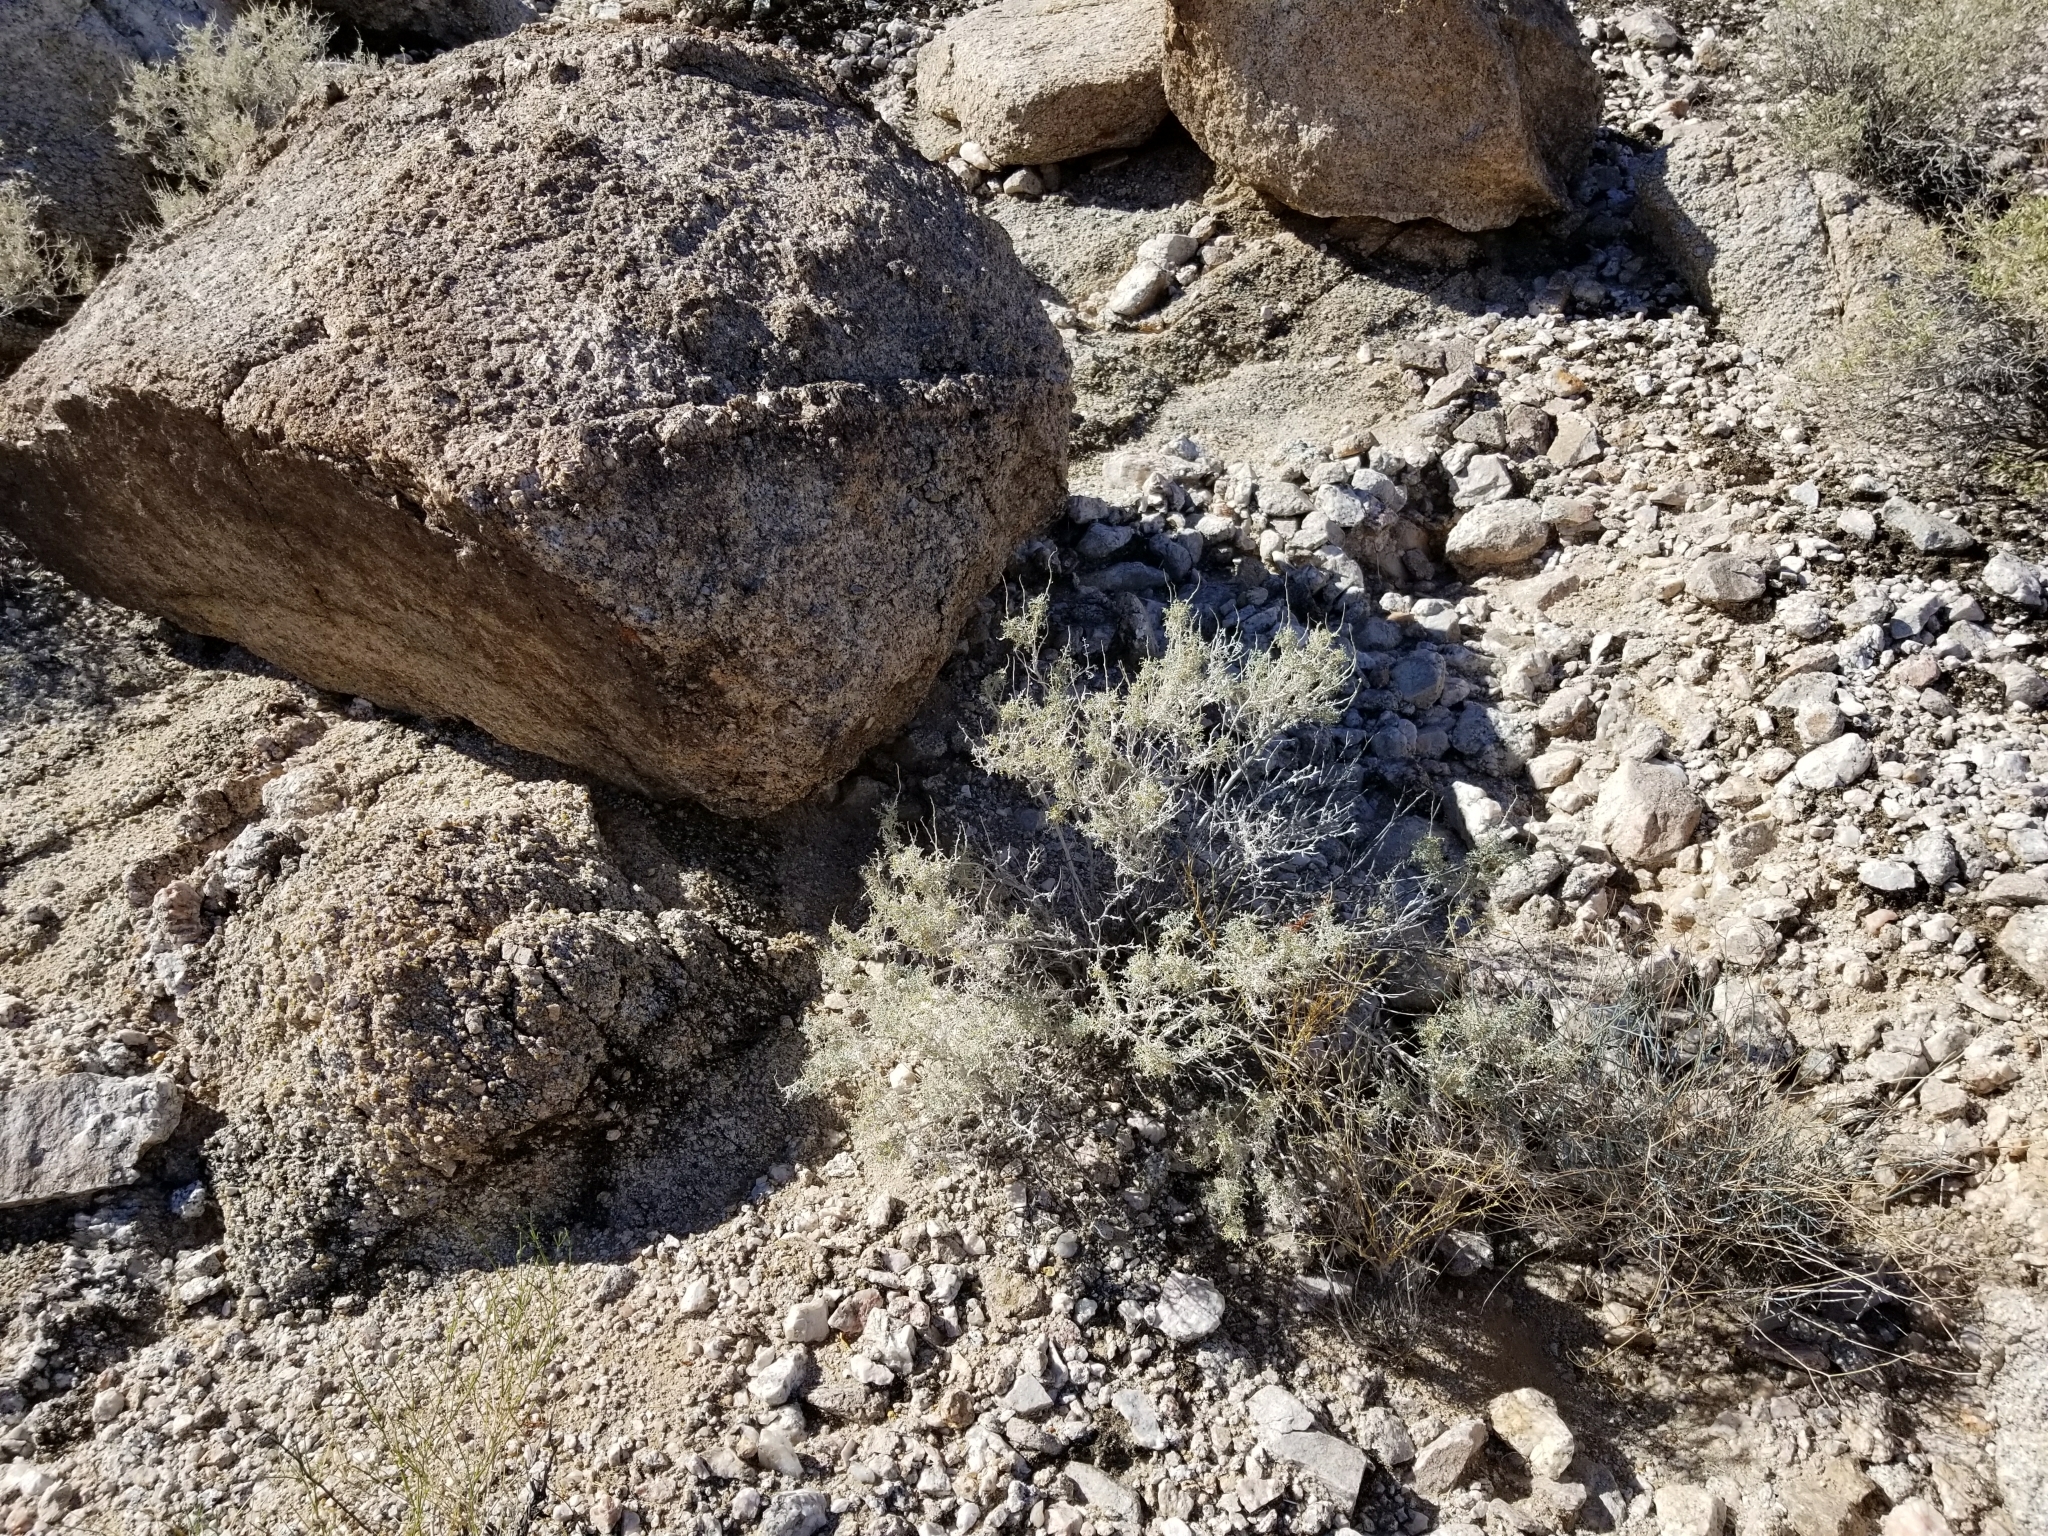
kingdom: Plantae
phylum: Tracheophyta
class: Magnoliopsida
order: Asterales
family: Asteraceae
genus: Ambrosia
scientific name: Ambrosia dumosa
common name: Bur-sage
